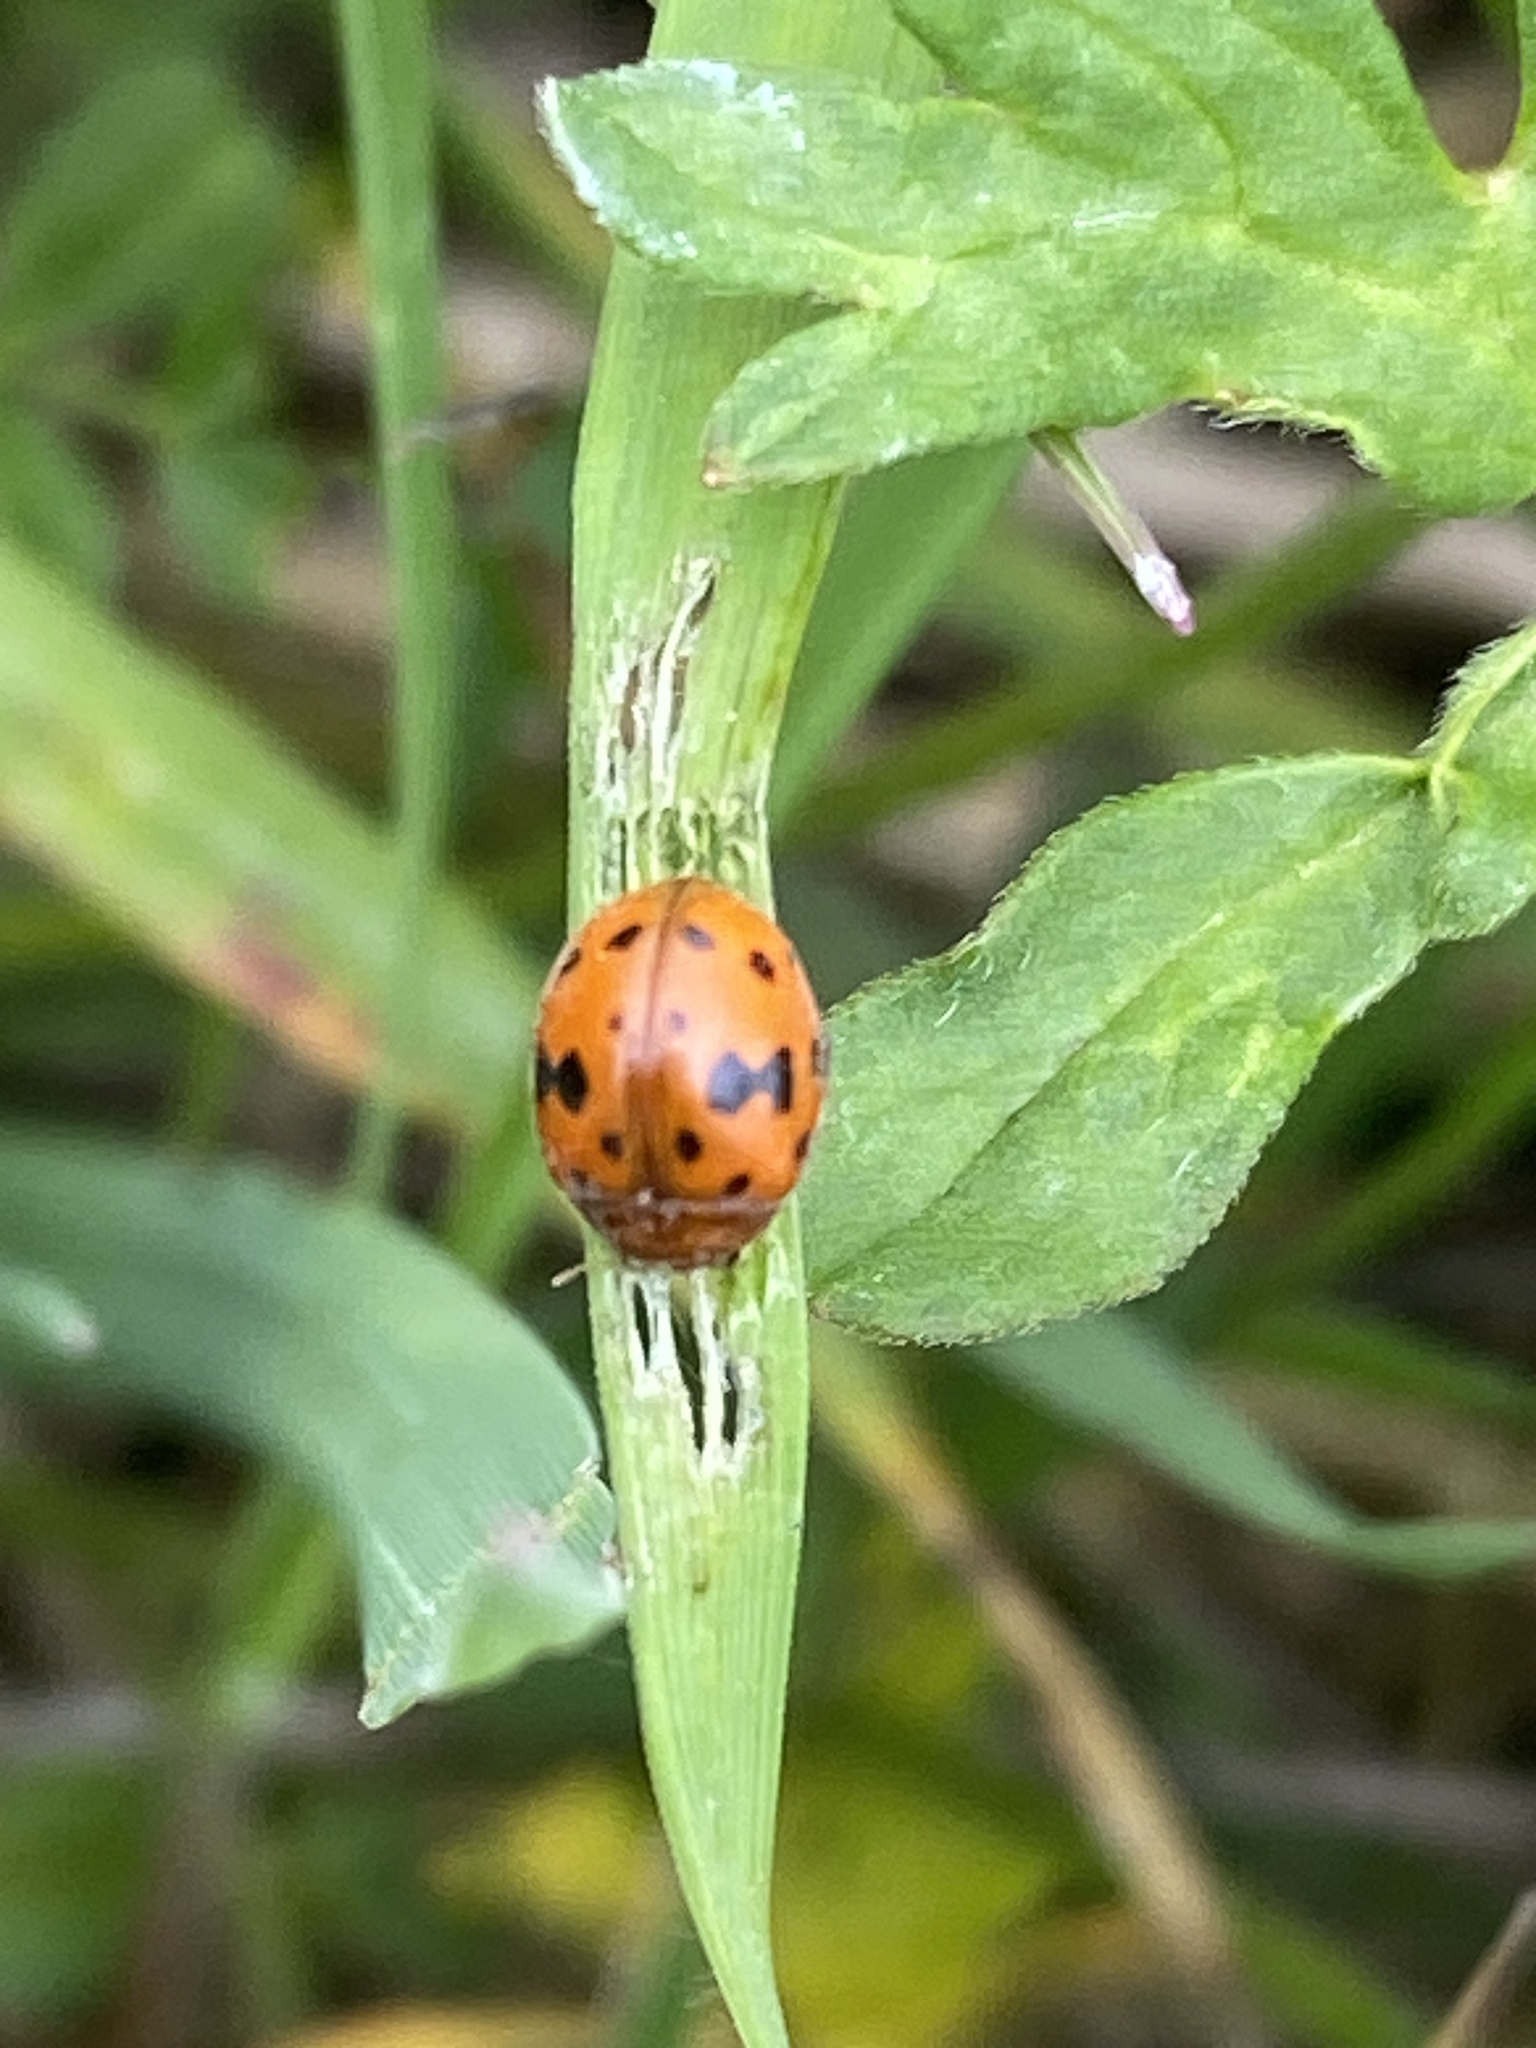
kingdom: Animalia
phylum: Arthropoda
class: Insecta
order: Coleoptera
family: Coccinellidae
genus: Subcoccinella
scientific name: Subcoccinella vigintiquatuorpunctata
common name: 24-spot ladybird
